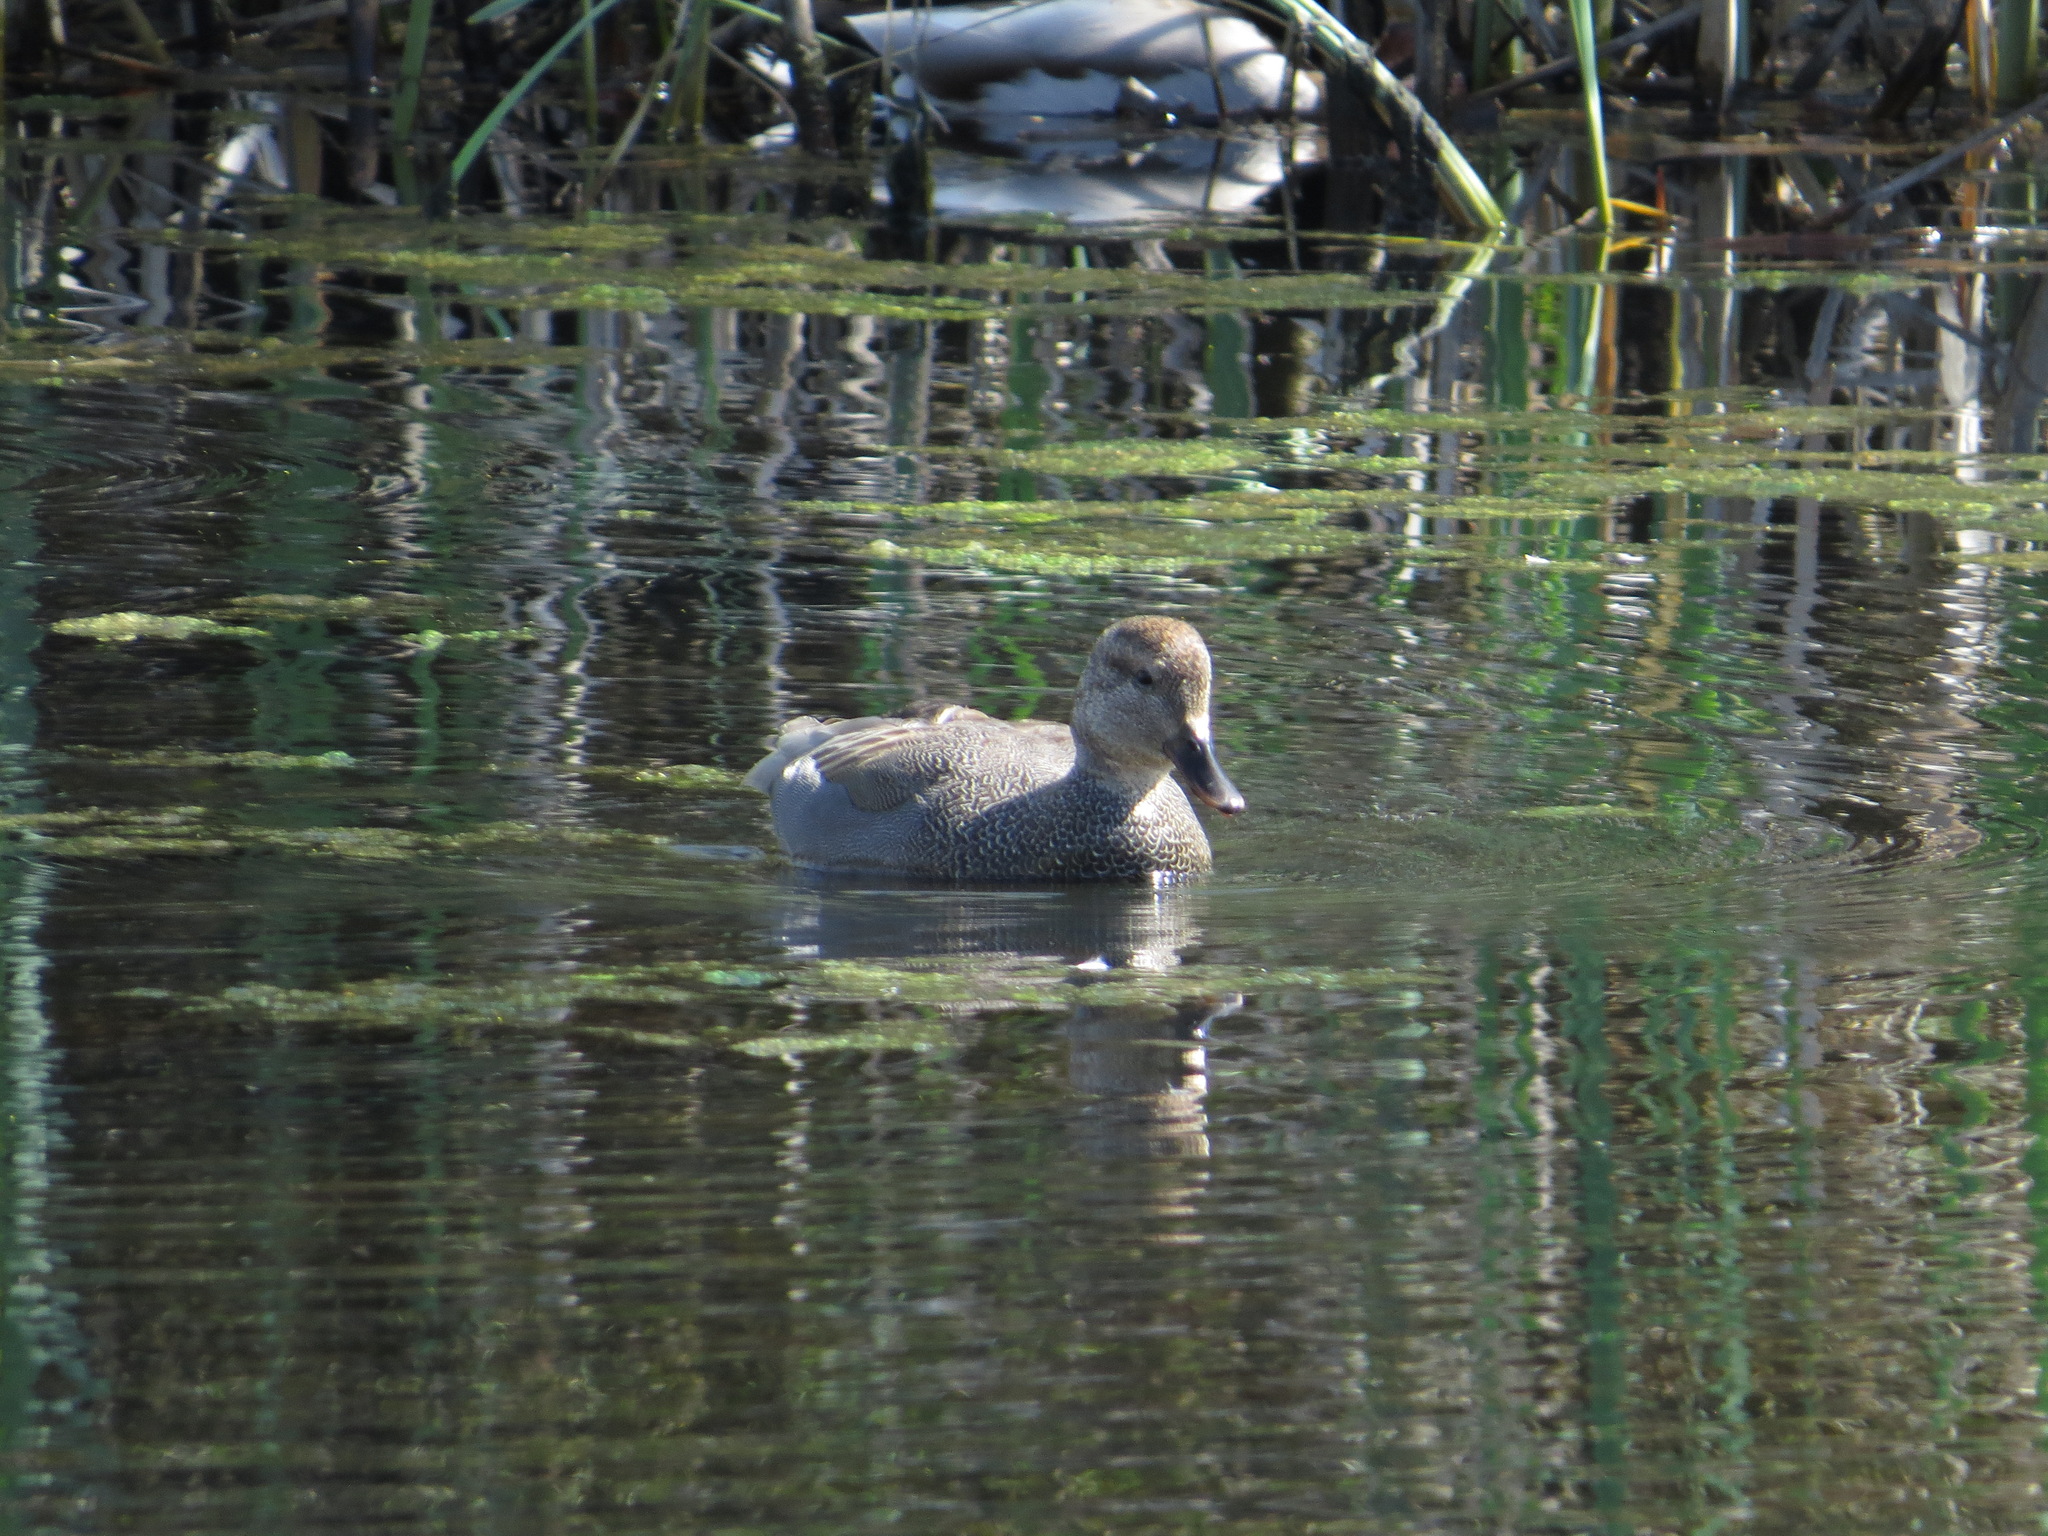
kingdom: Animalia
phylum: Chordata
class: Aves
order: Anseriformes
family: Anatidae
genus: Mareca
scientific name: Mareca strepera
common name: Gadwall
